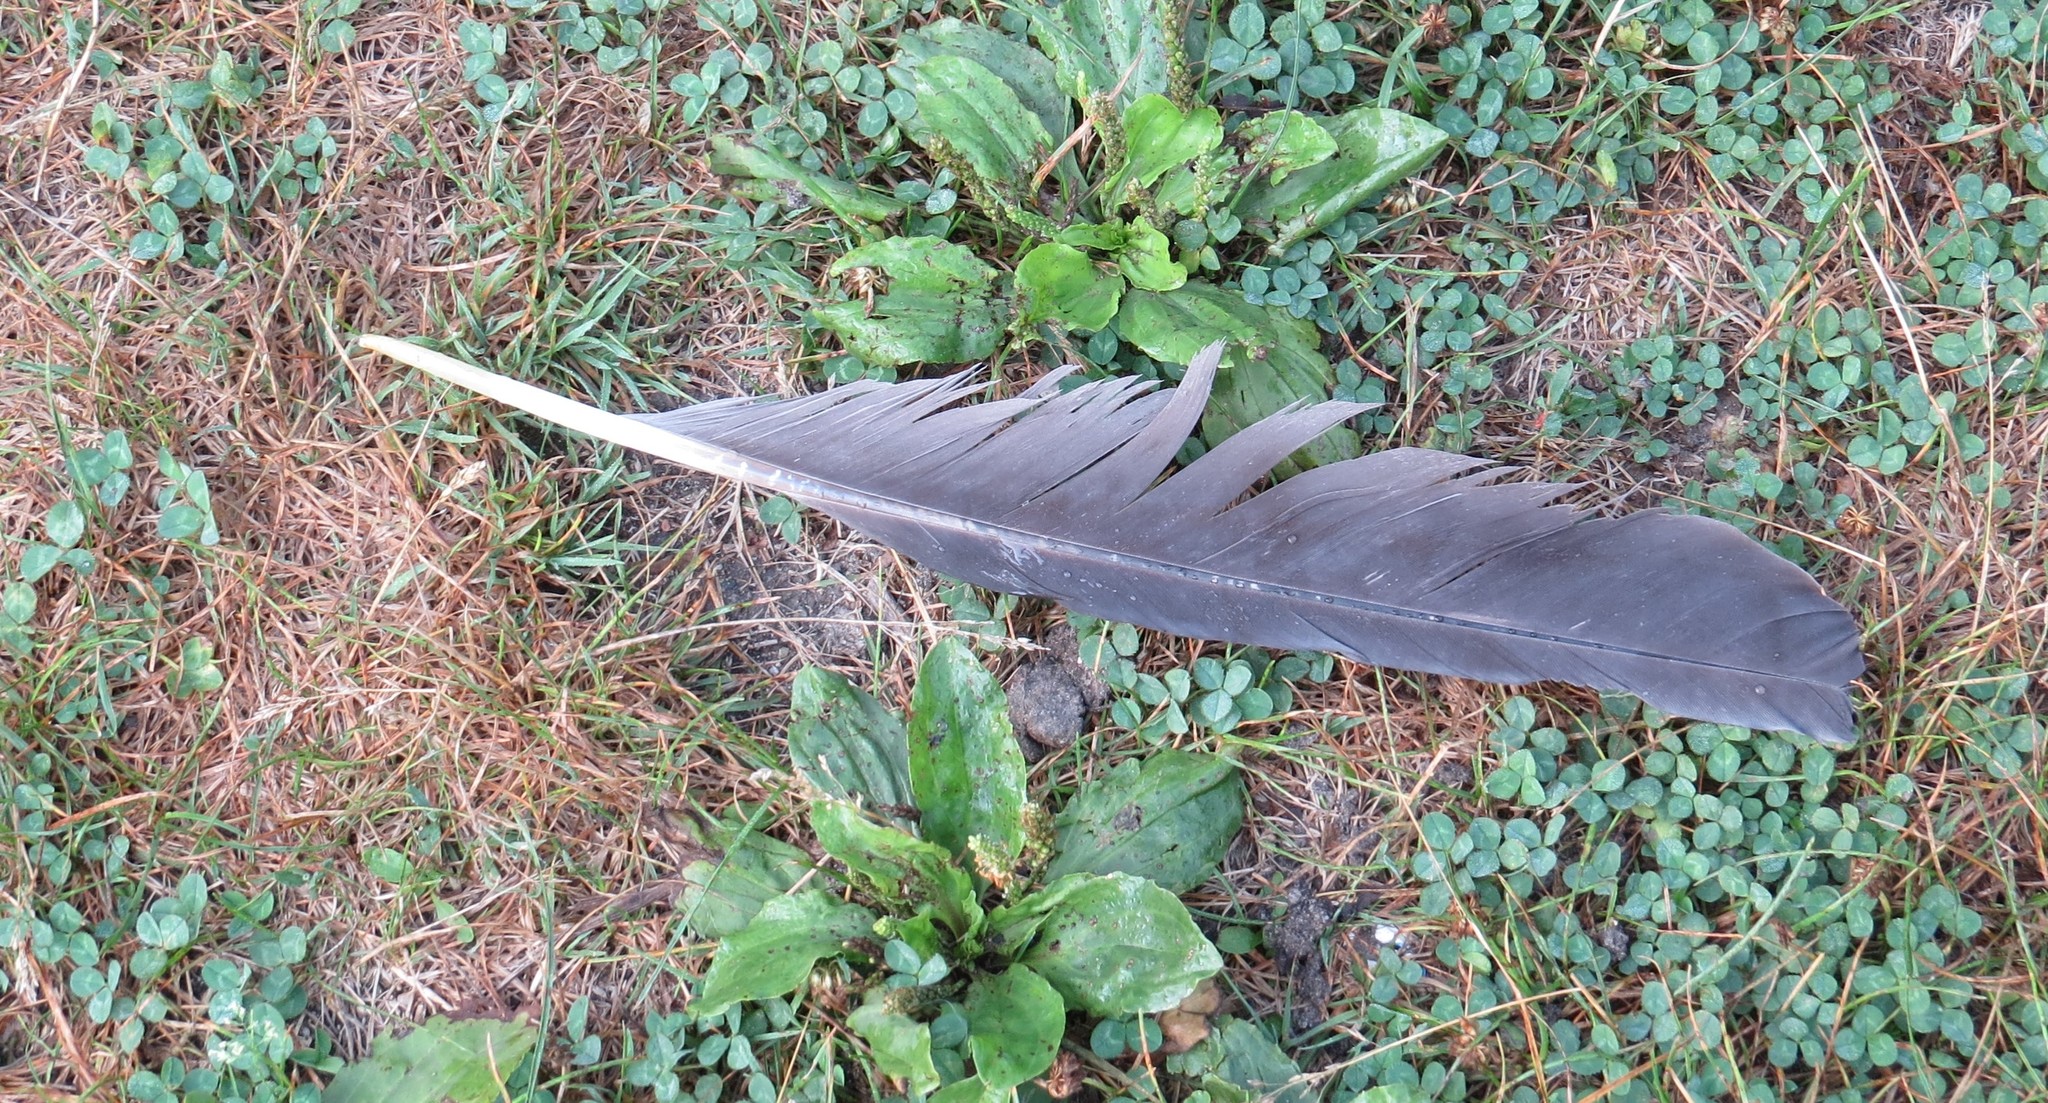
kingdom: Animalia
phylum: Chordata
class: Aves
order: Pelecaniformes
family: Ardeidae
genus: Ardea
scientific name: Ardea herodias
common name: Great blue heron
